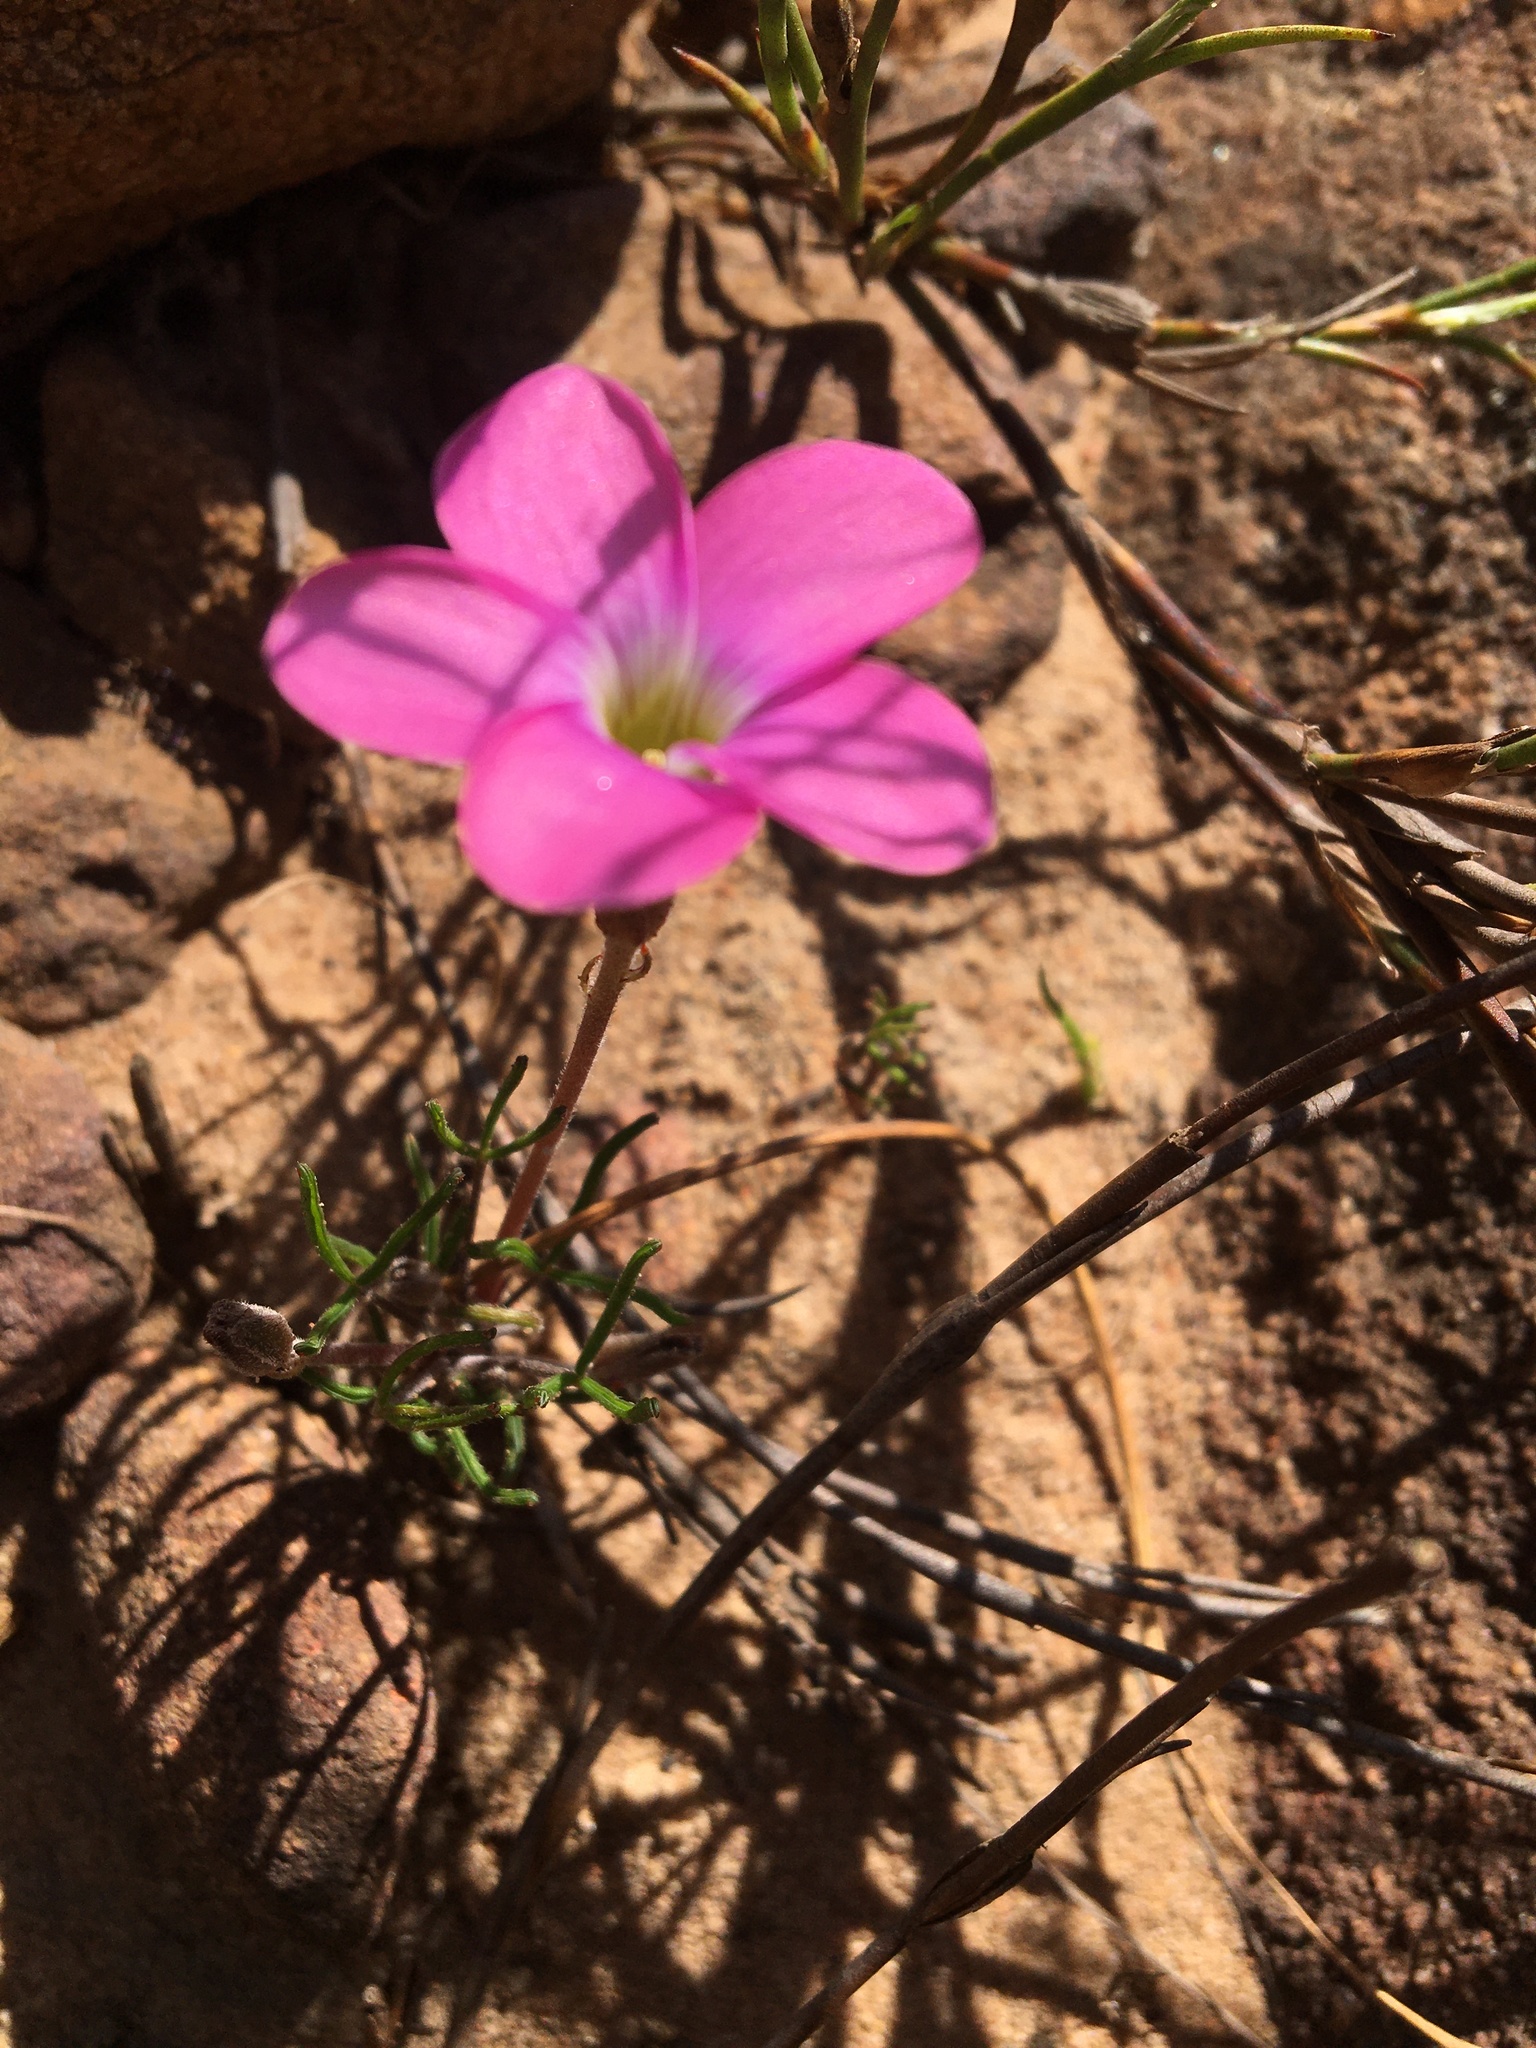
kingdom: Plantae
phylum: Tracheophyta
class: Magnoliopsida
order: Oxalidales
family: Oxalidaceae
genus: Oxalis
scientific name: Oxalis polyphylla
